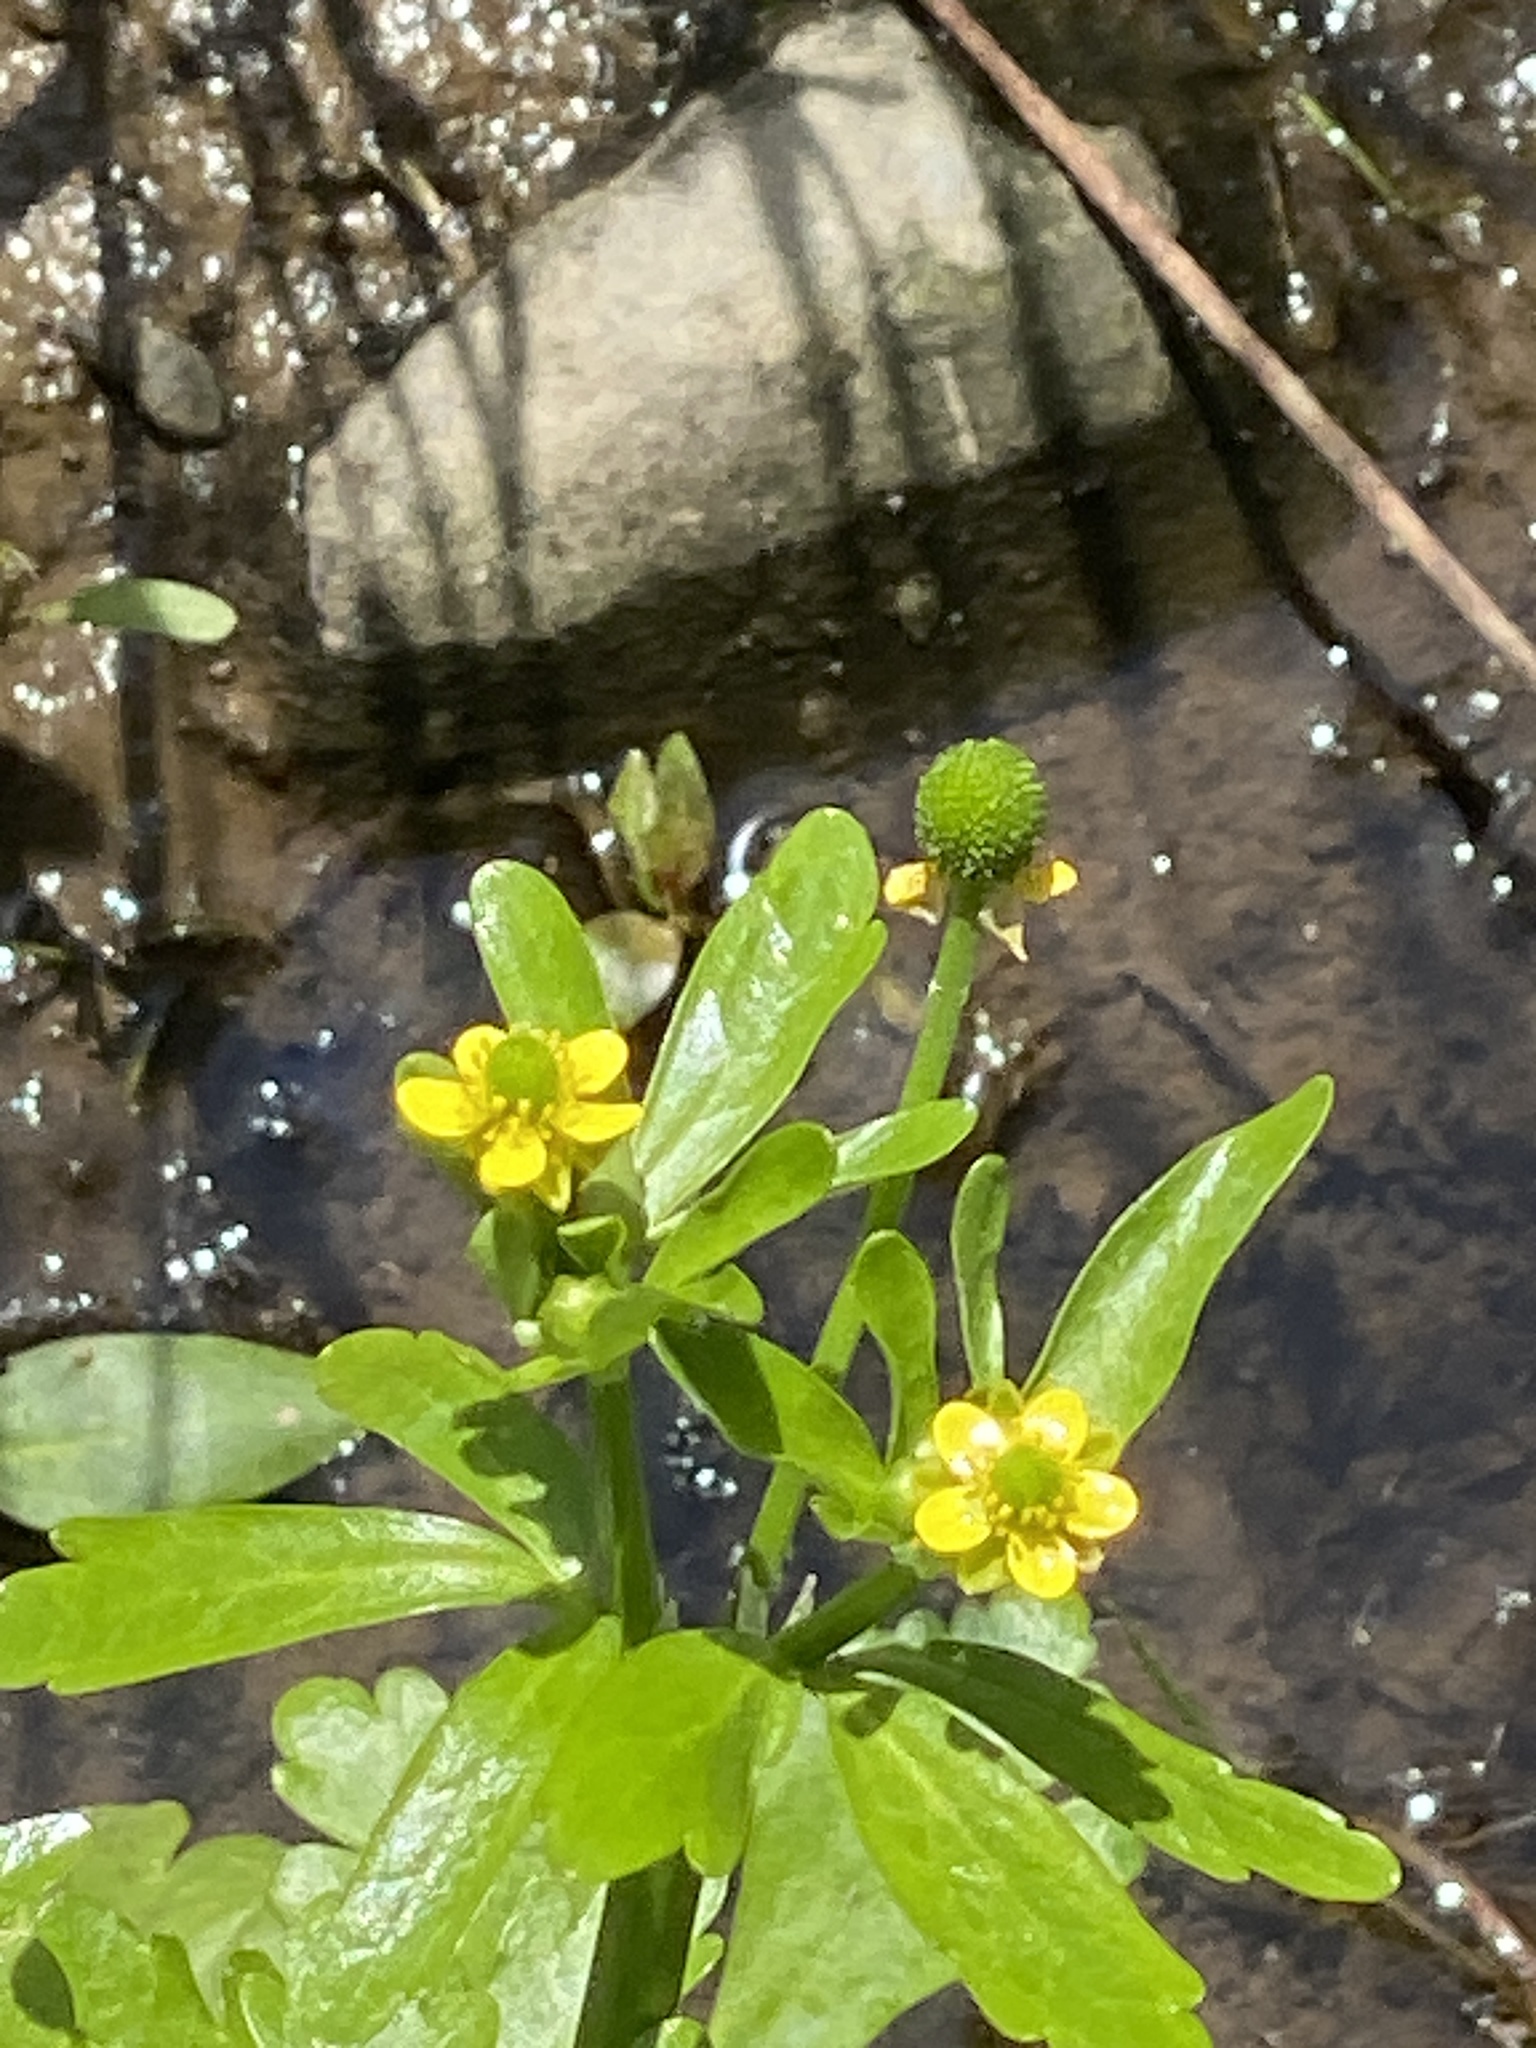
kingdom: Plantae
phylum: Tracheophyta
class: Magnoliopsida
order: Ranunculales
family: Ranunculaceae
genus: Ranunculus
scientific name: Ranunculus sceleratus
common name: Celery-leaved buttercup
